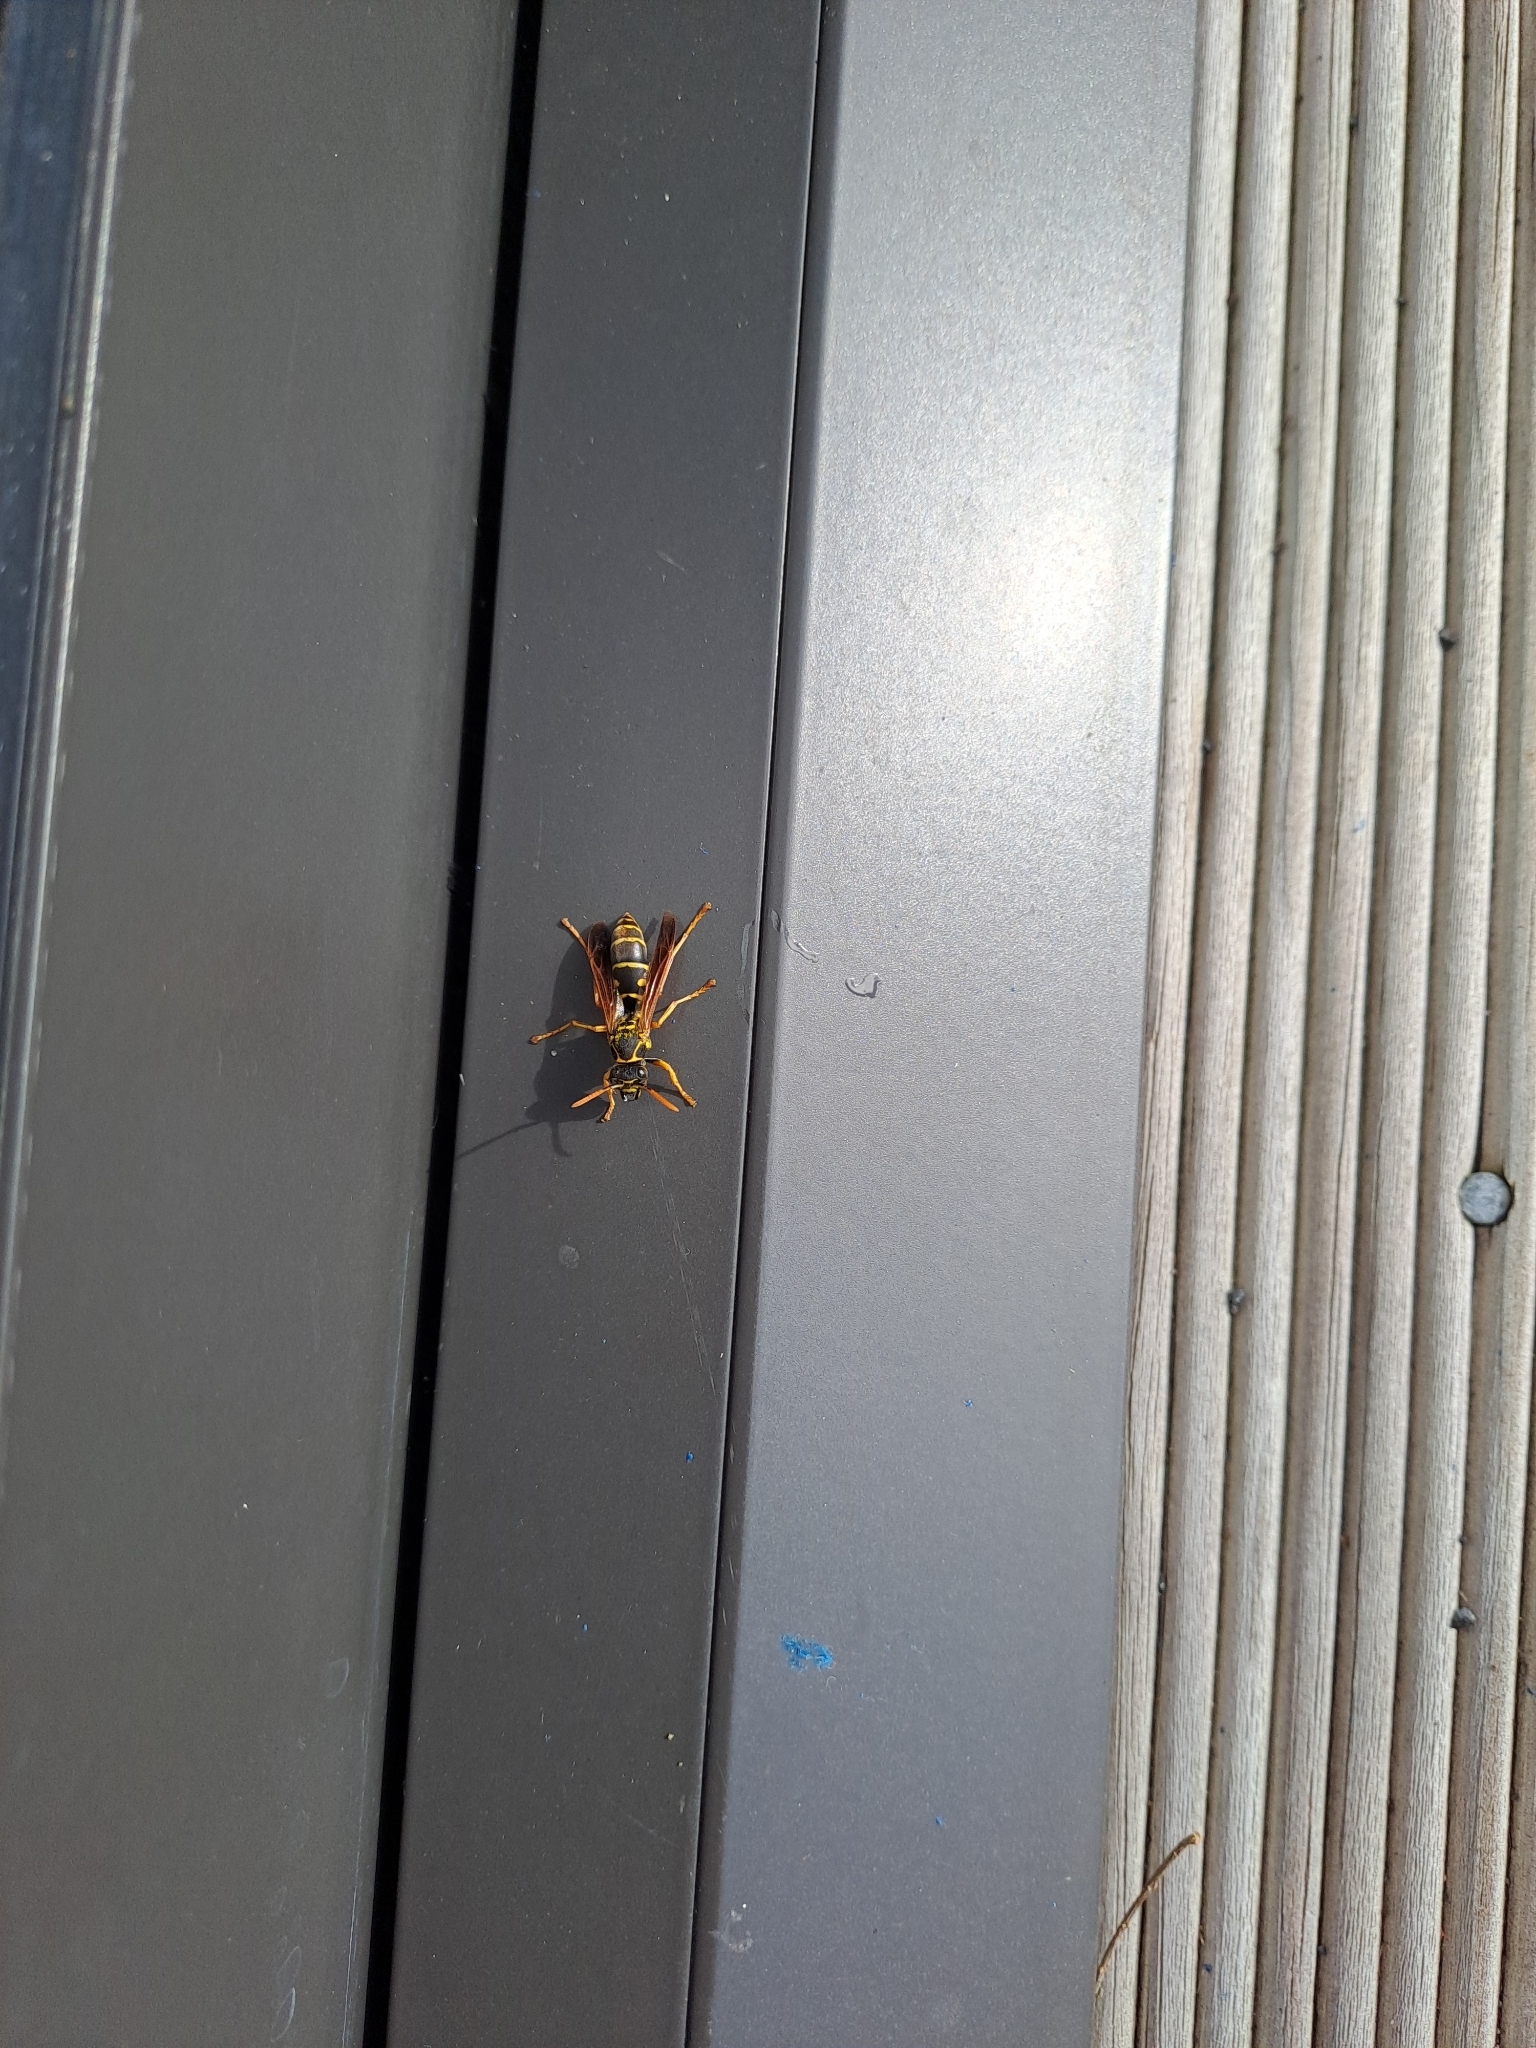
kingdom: Animalia
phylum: Arthropoda
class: Insecta
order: Hymenoptera
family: Eumenidae
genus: Polistes
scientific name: Polistes chinensis
